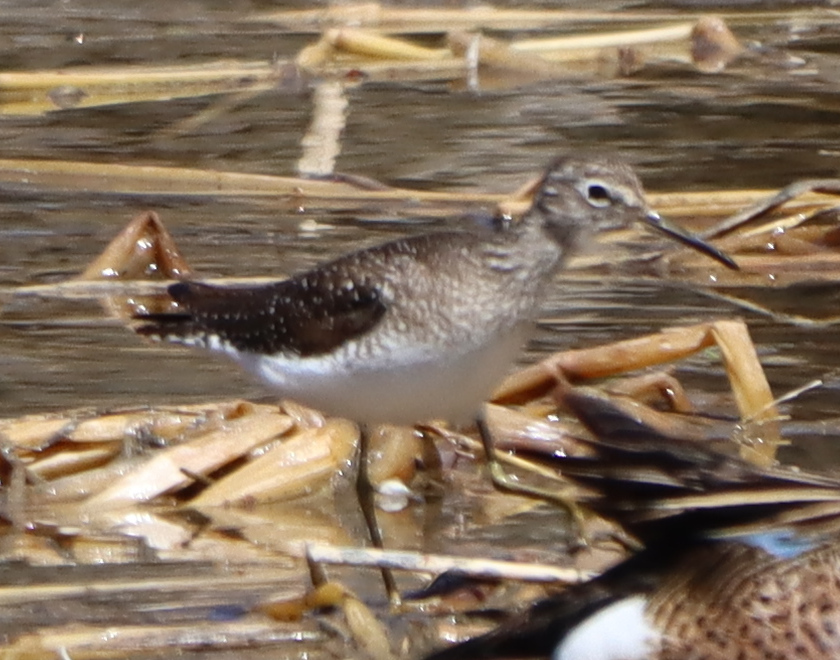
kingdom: Animalia
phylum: Chordata
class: Aves
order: Charadriiformes
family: Scolopacidae
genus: Tringa
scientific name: Tringa solitaria
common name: Solitary sandpiper
